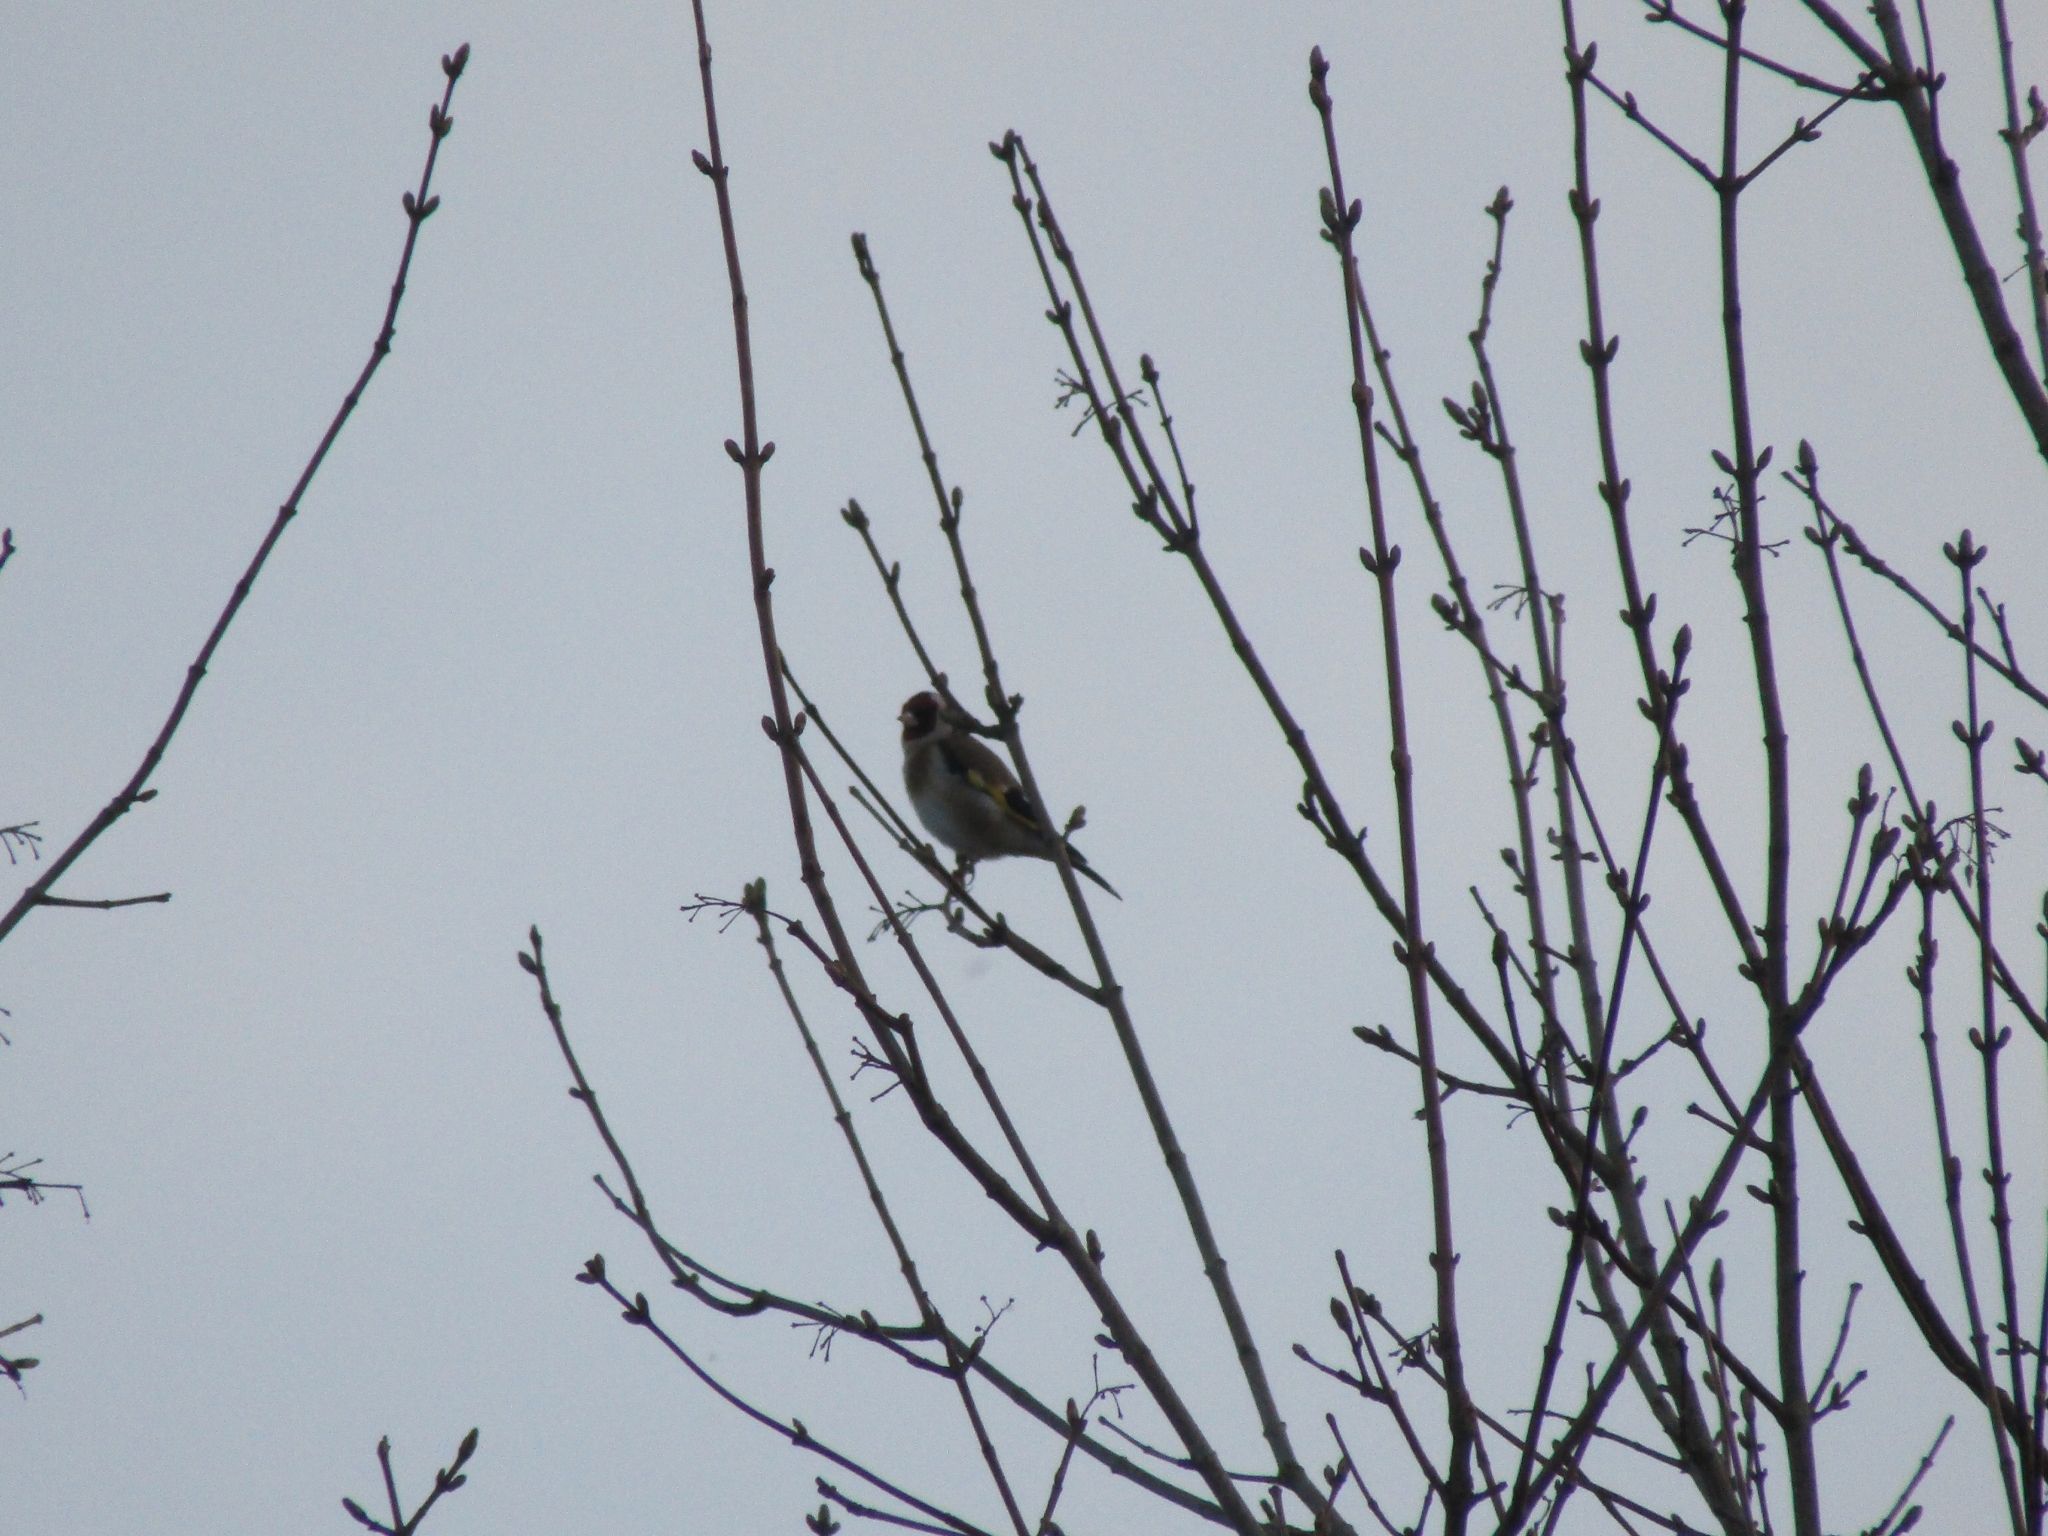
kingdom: Animalia
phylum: Chordata
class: Aves
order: Passeriformes
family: Fringillidae
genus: Carduelis
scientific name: Carduelis carduelis
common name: European goldfinch
